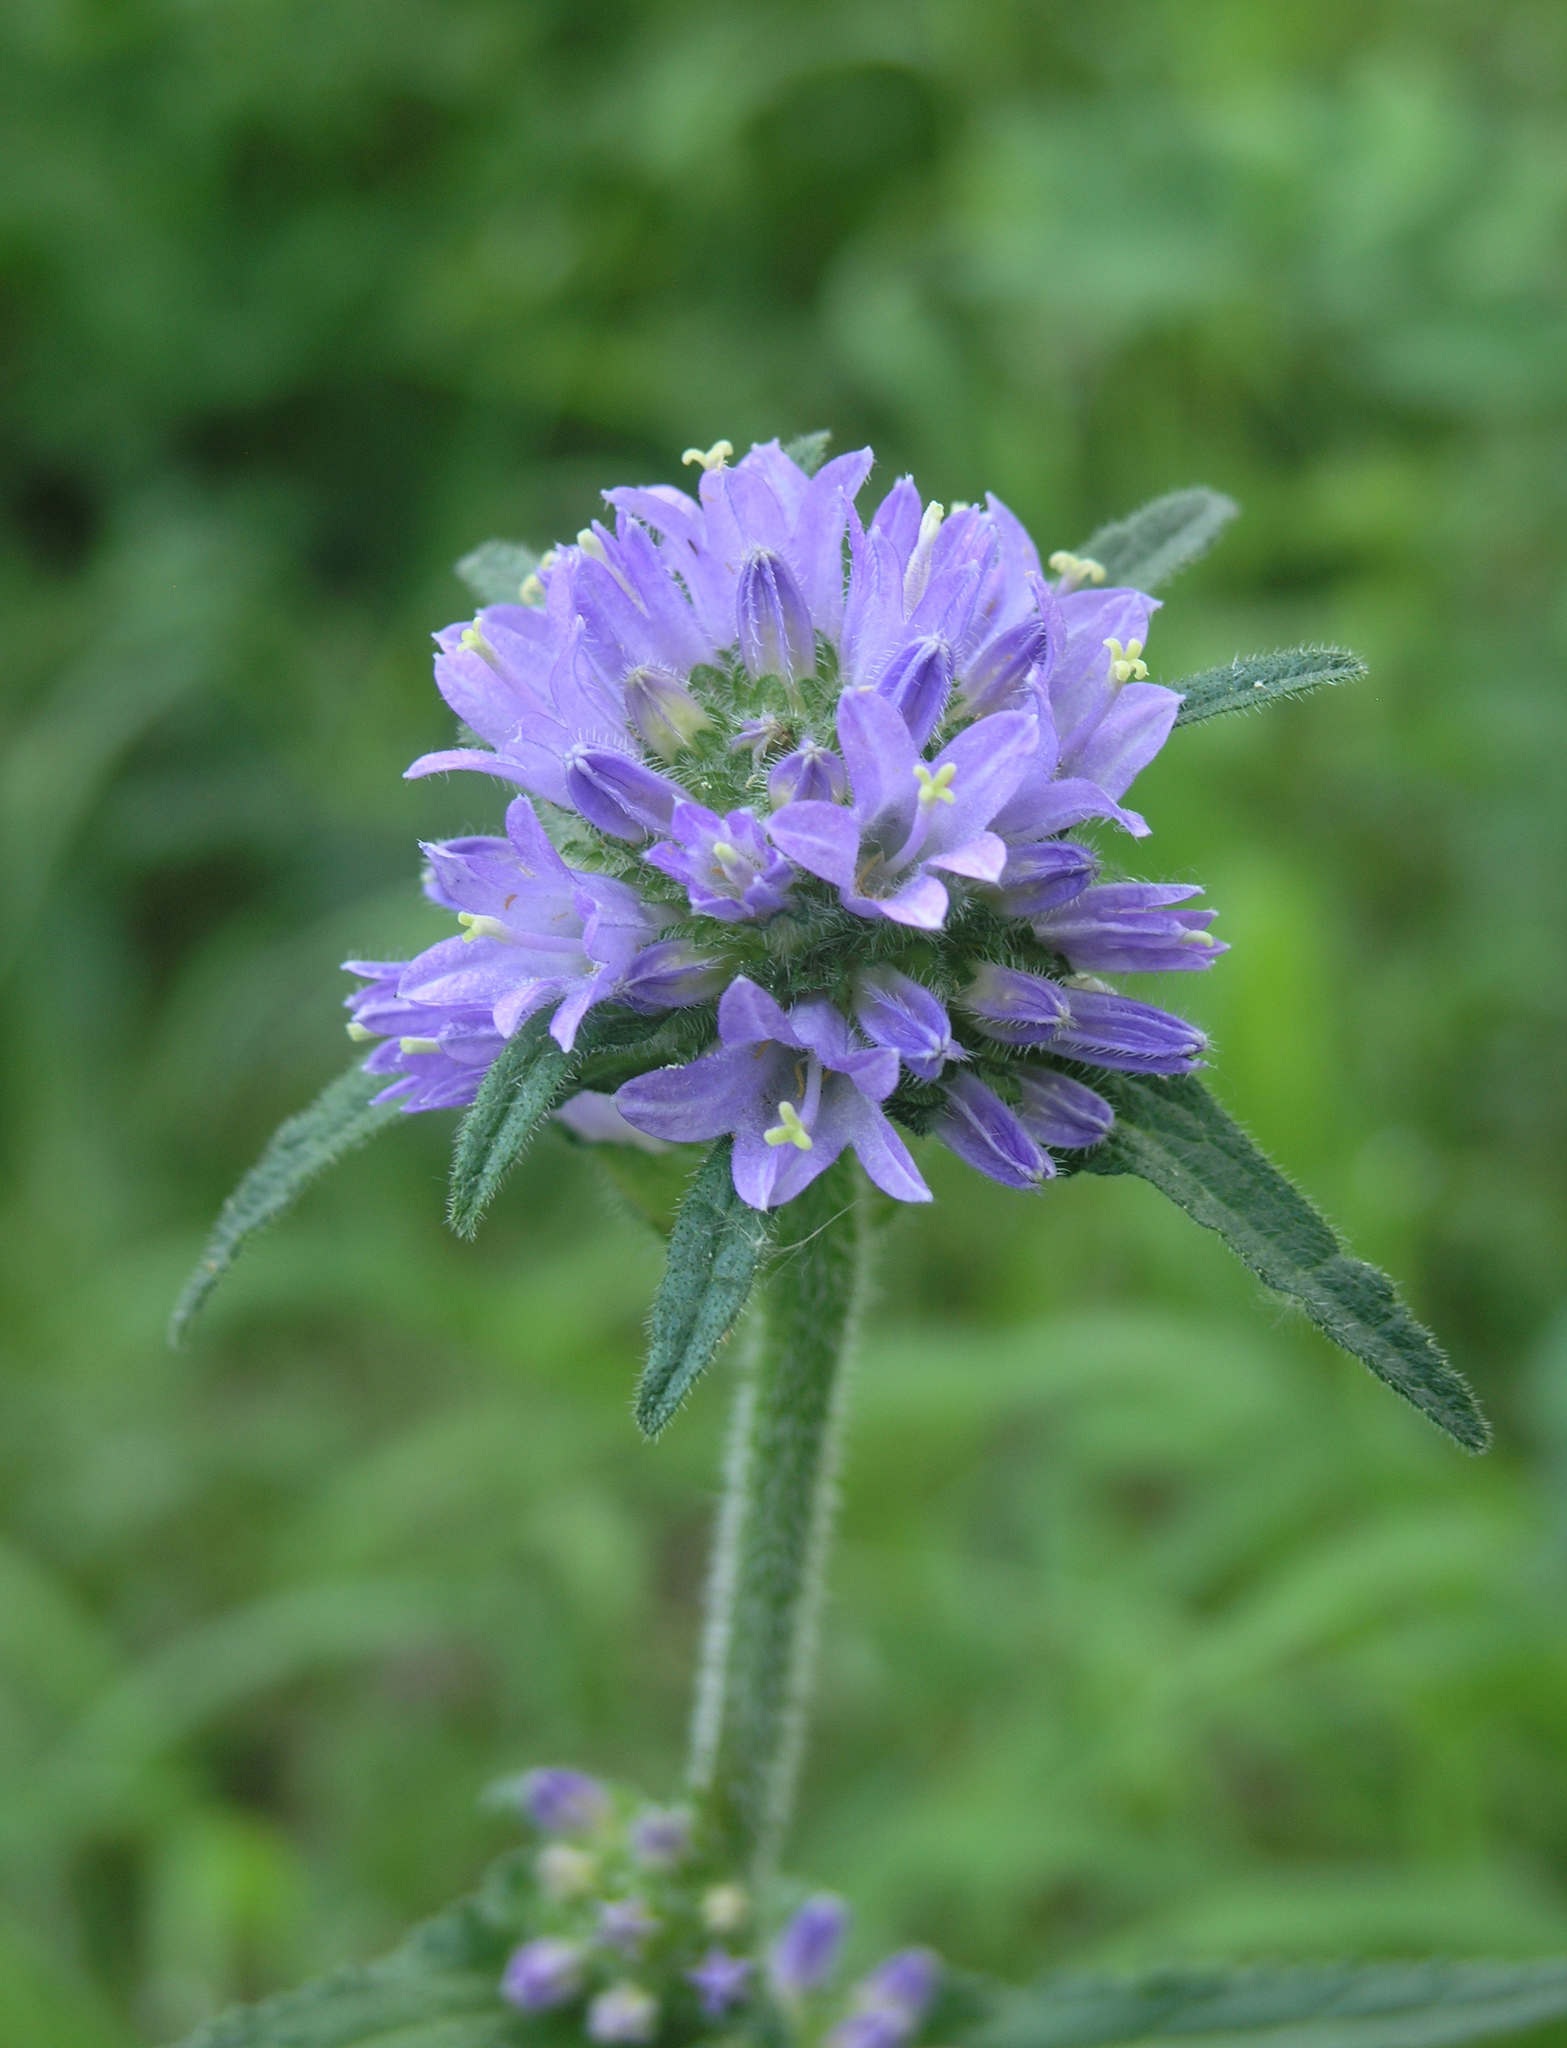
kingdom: Plantae
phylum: Tracheophyta
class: Magnoliopsida
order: Asterales
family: Campanulaceae
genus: Campanula
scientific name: Campanula cervicaria
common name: Bristly bellflower
